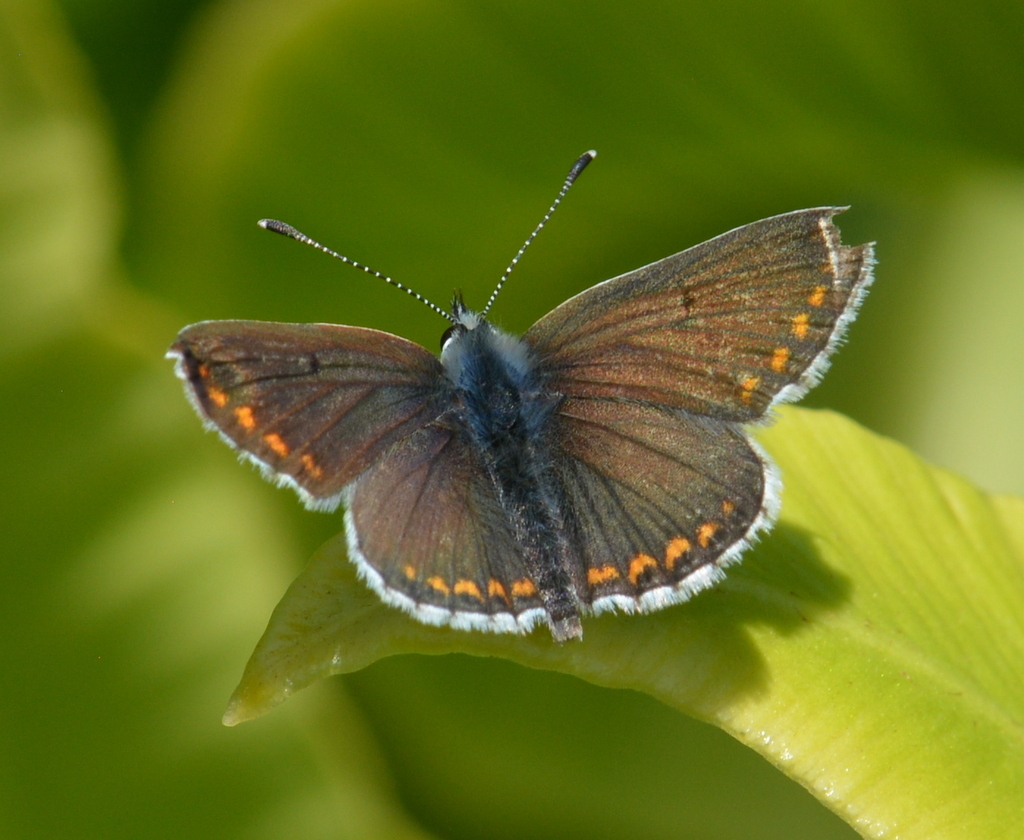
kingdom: Animalia
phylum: Arthropoda
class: Insecta
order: Lepidoptera
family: Lycaenidae
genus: Aricia
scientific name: Aricia agestis
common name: Brown argus
